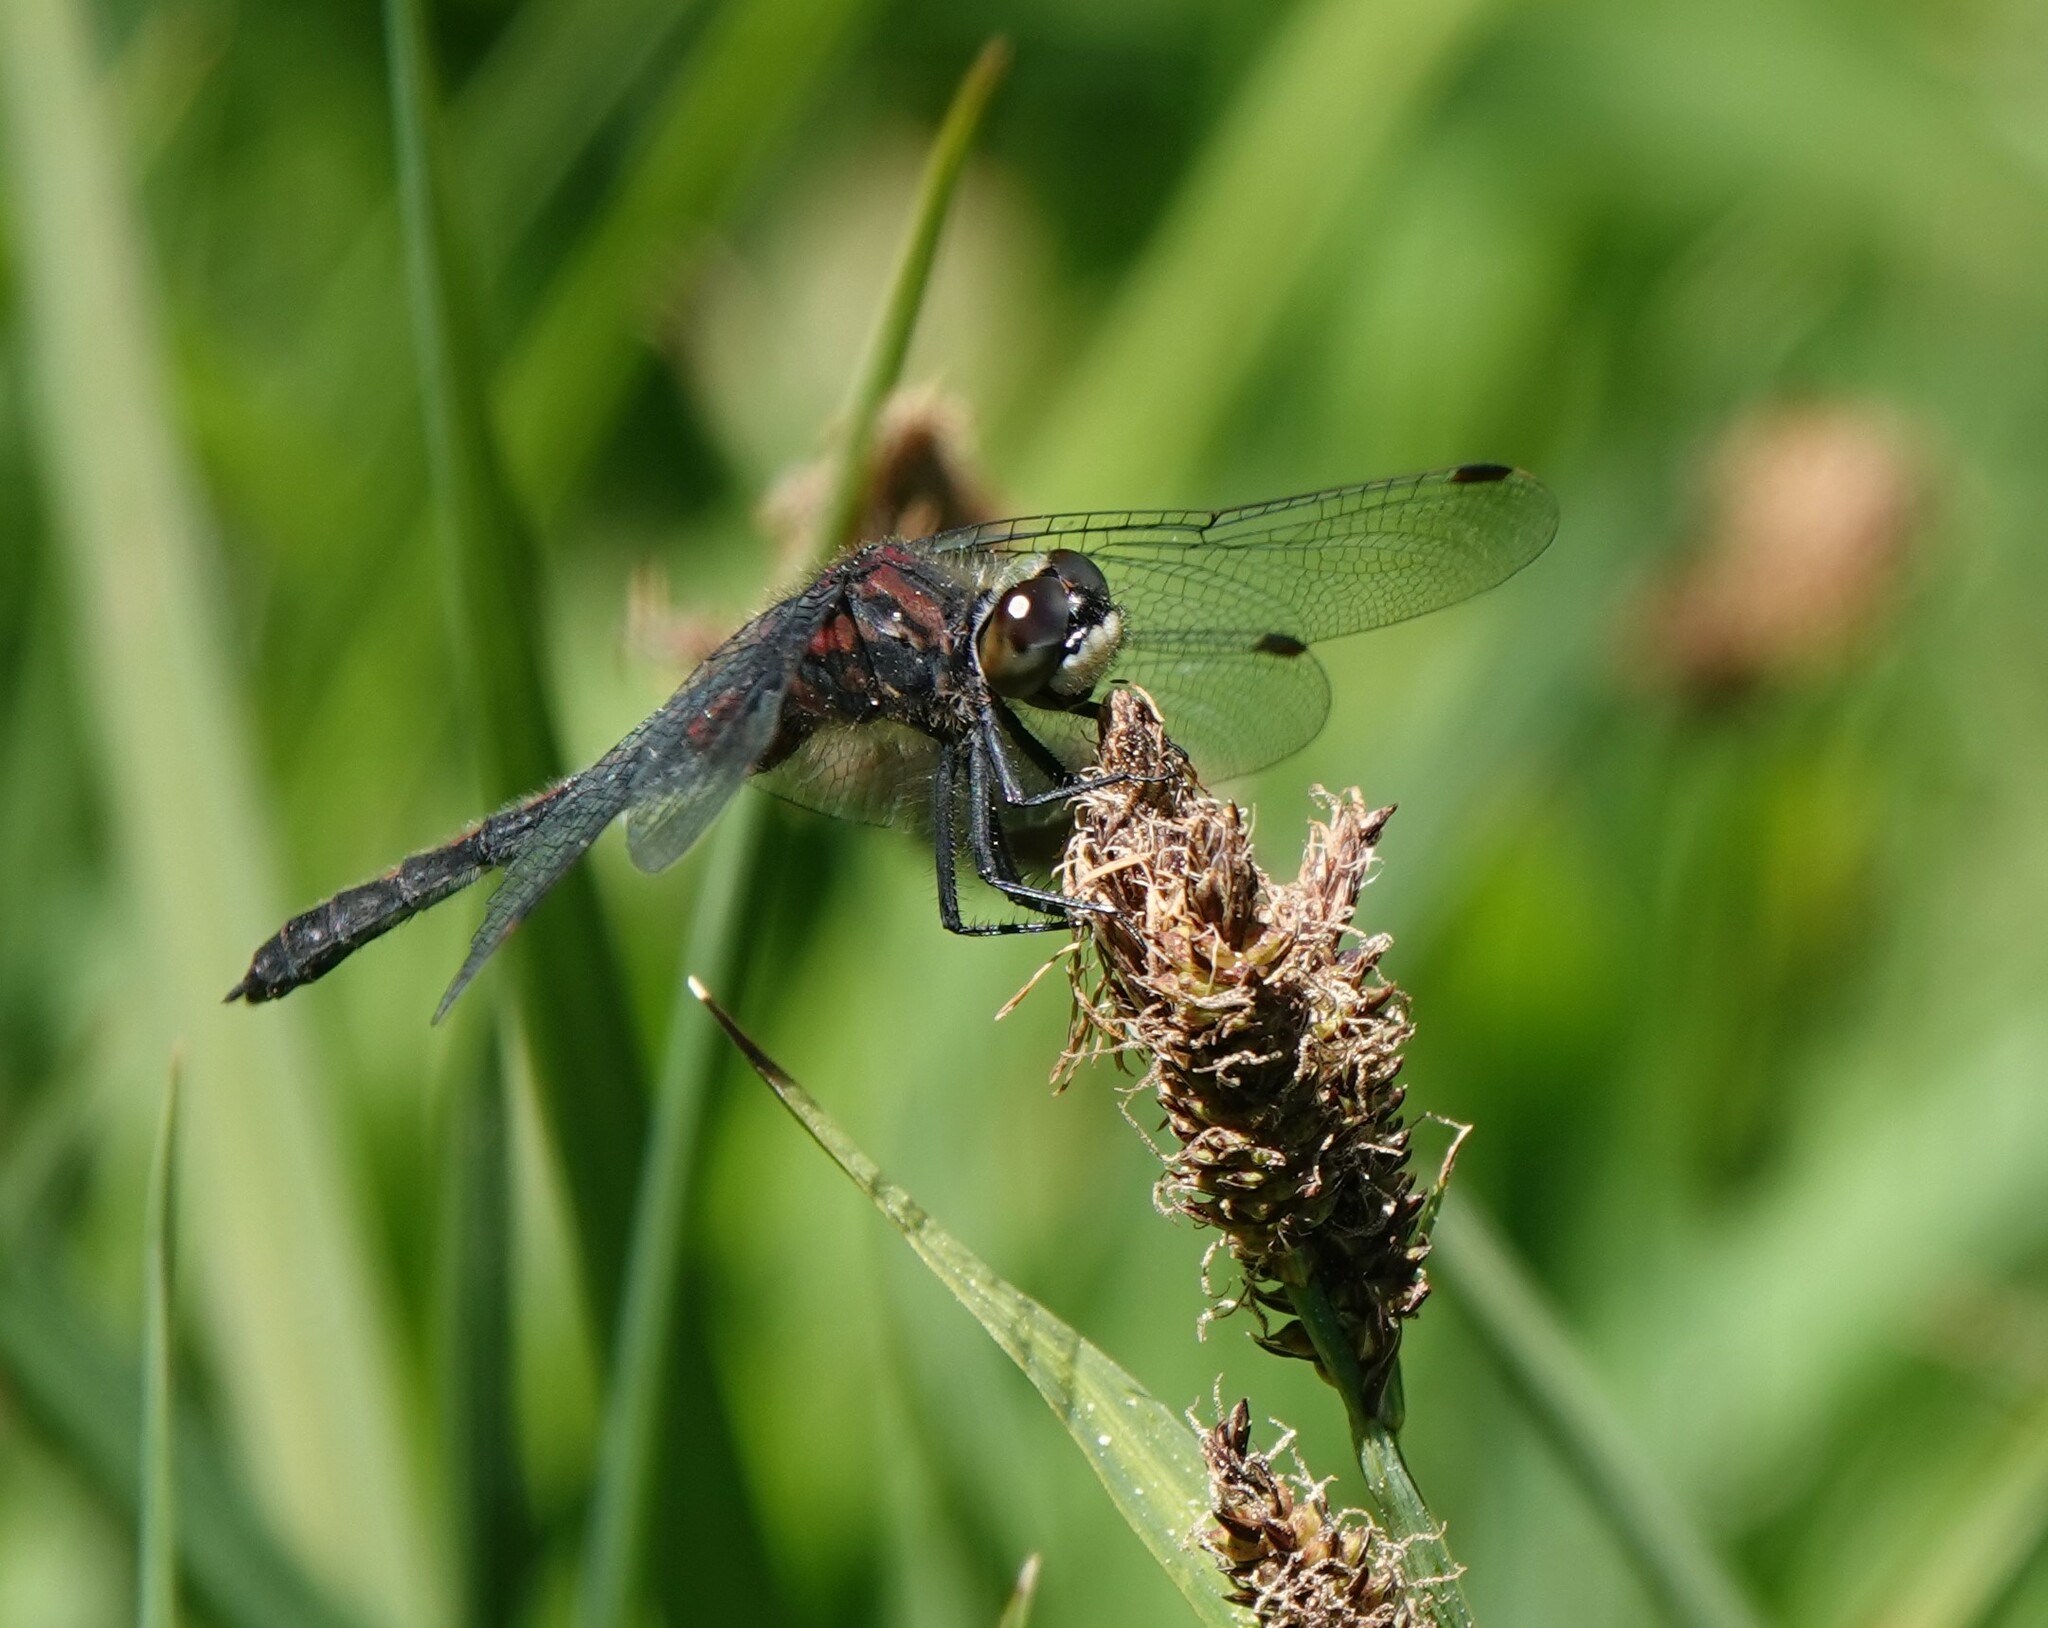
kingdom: Animalia
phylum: Arthropoda
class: Insecta
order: Odonata
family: Libellulidae
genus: Leucorrhinia
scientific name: Leucorrhinia glacialis
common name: Crimson-ringed whiteface
